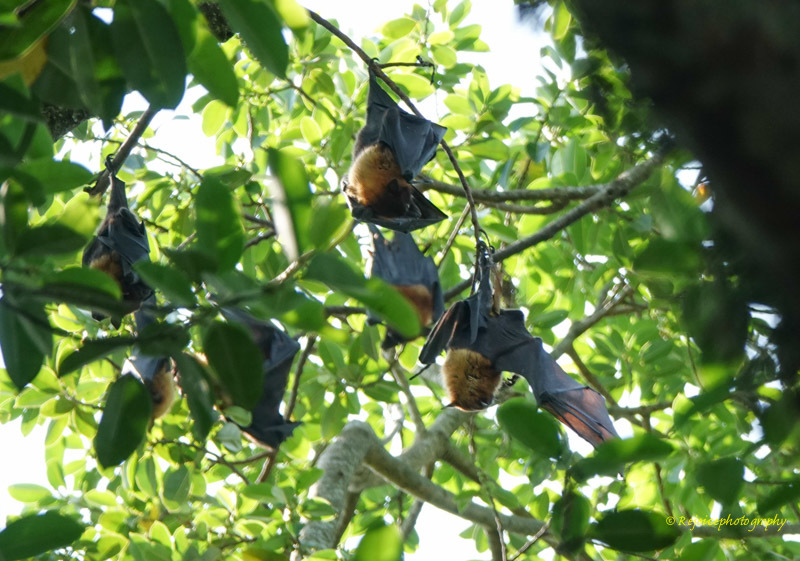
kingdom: Animalia
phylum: Chordata
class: Mammalia
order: Chiroptera
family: Pteropodidae
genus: Pteropus
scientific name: Pteropus vampyrus
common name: Large flying fox
